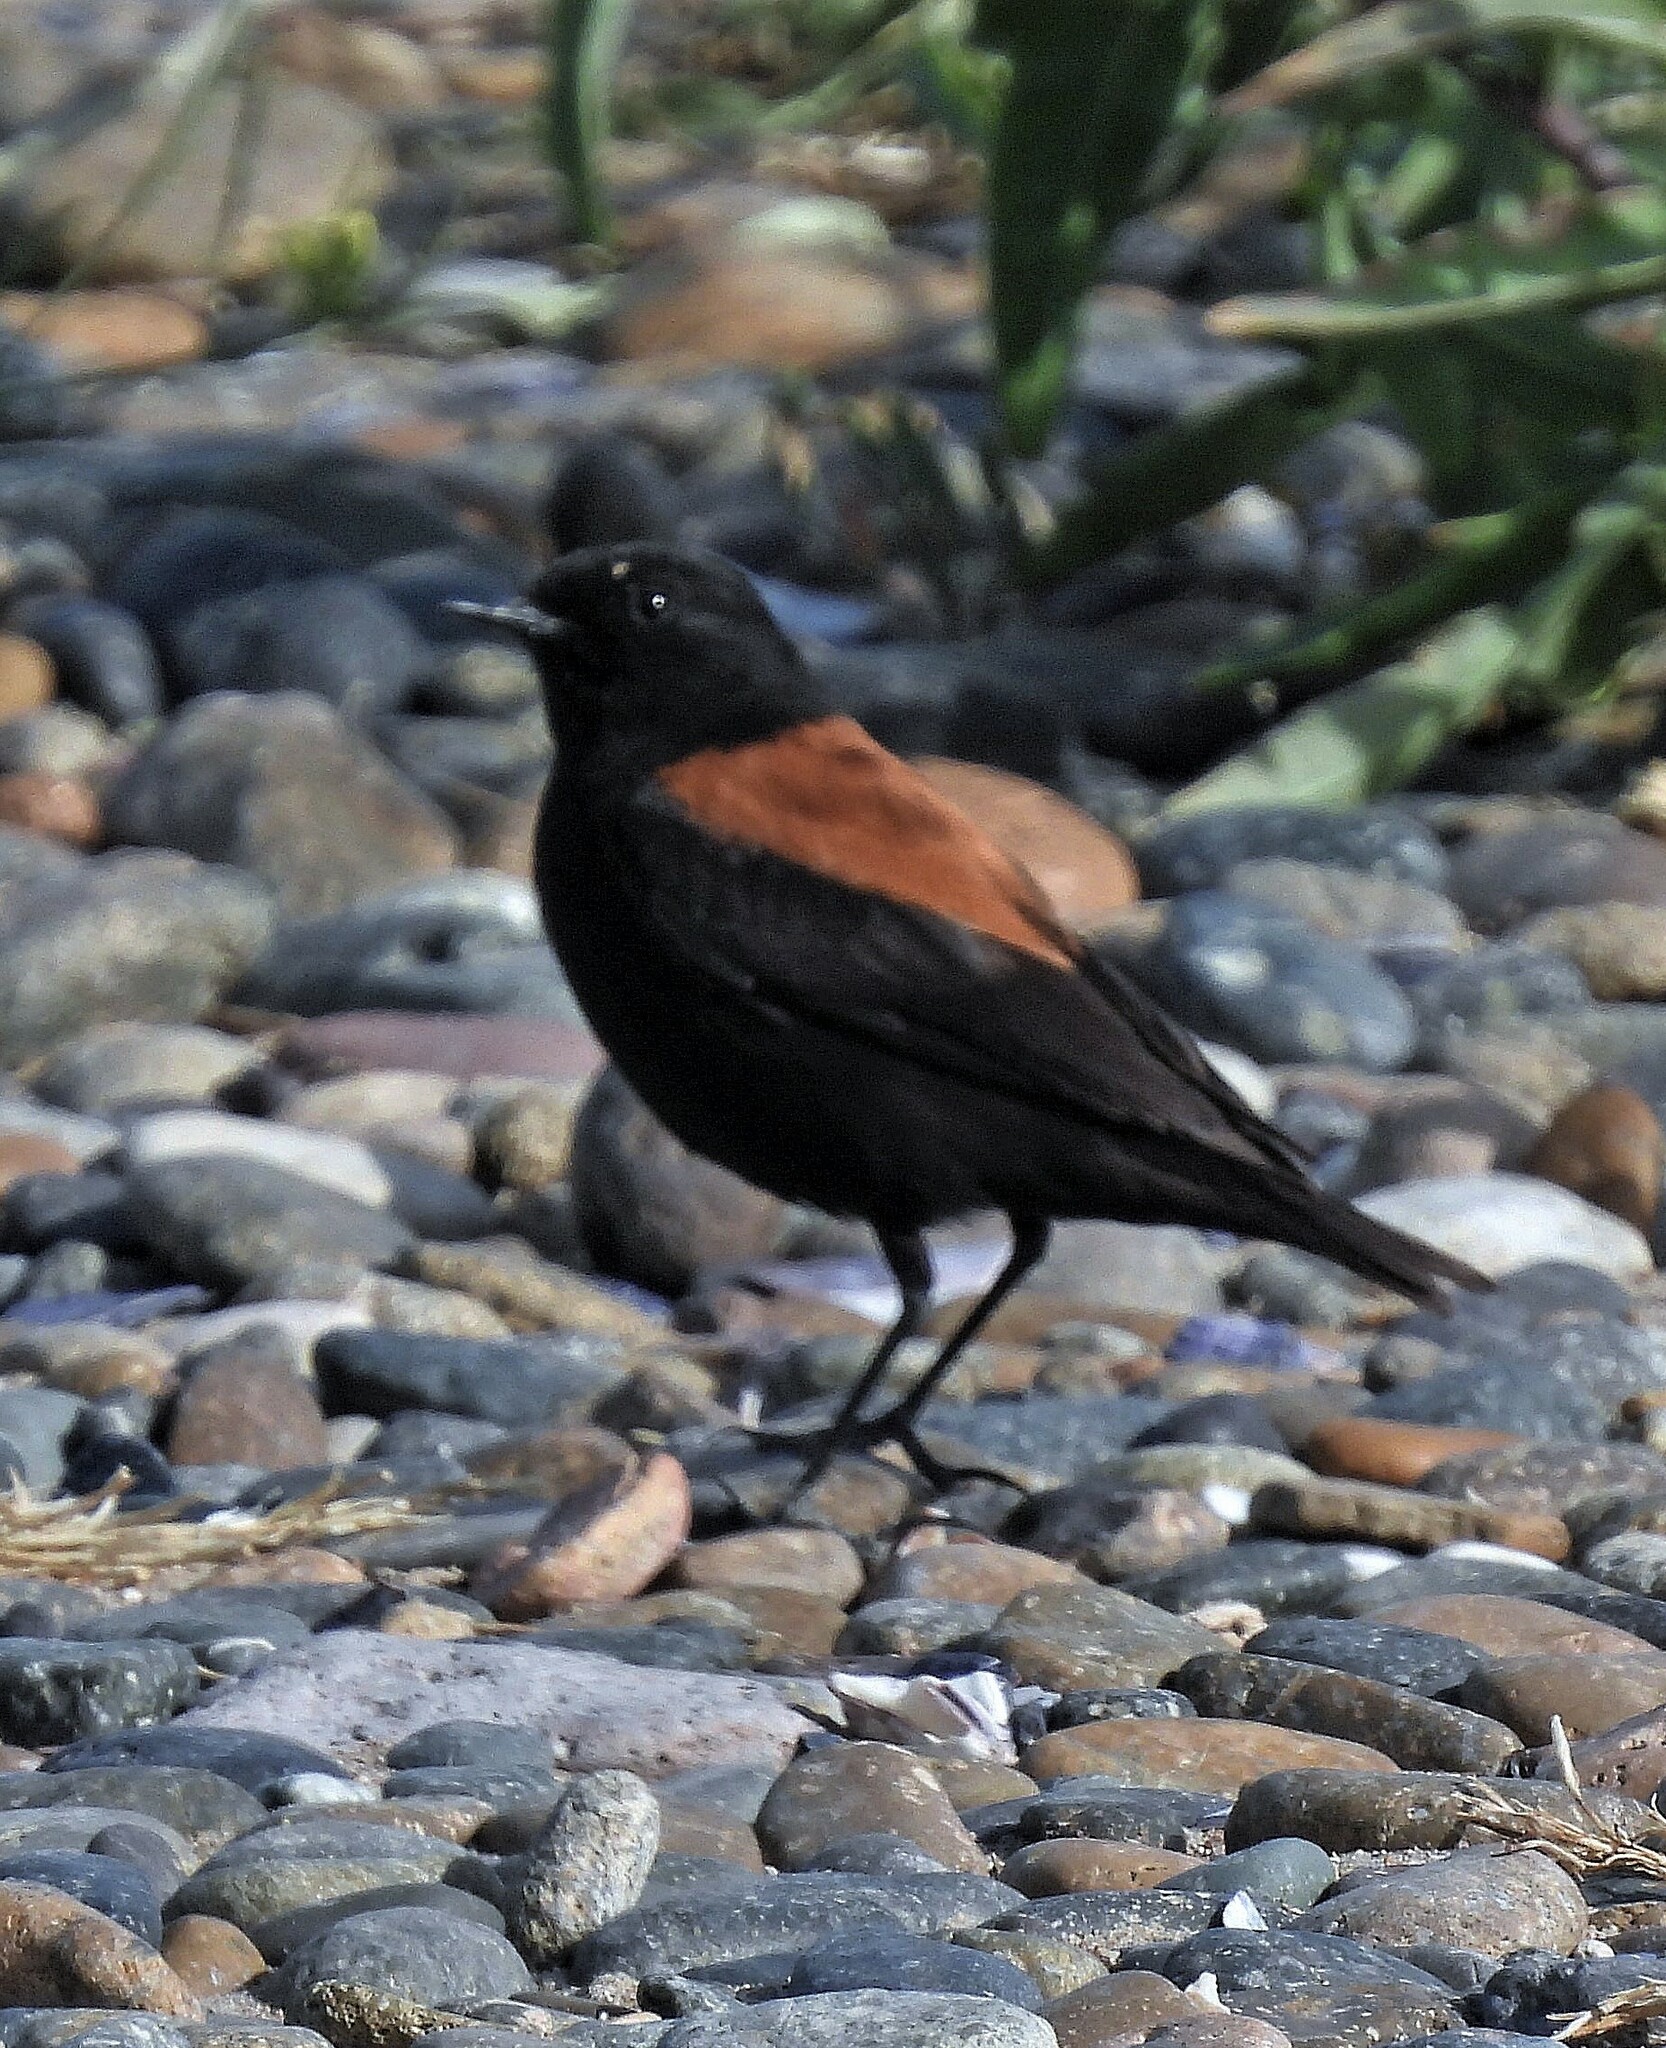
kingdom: Animalia
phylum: Chordata
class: Aves
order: Passeriformes
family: Tyrannidae
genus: Lessonia
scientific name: Lessonia rufa
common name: Austral negrito
